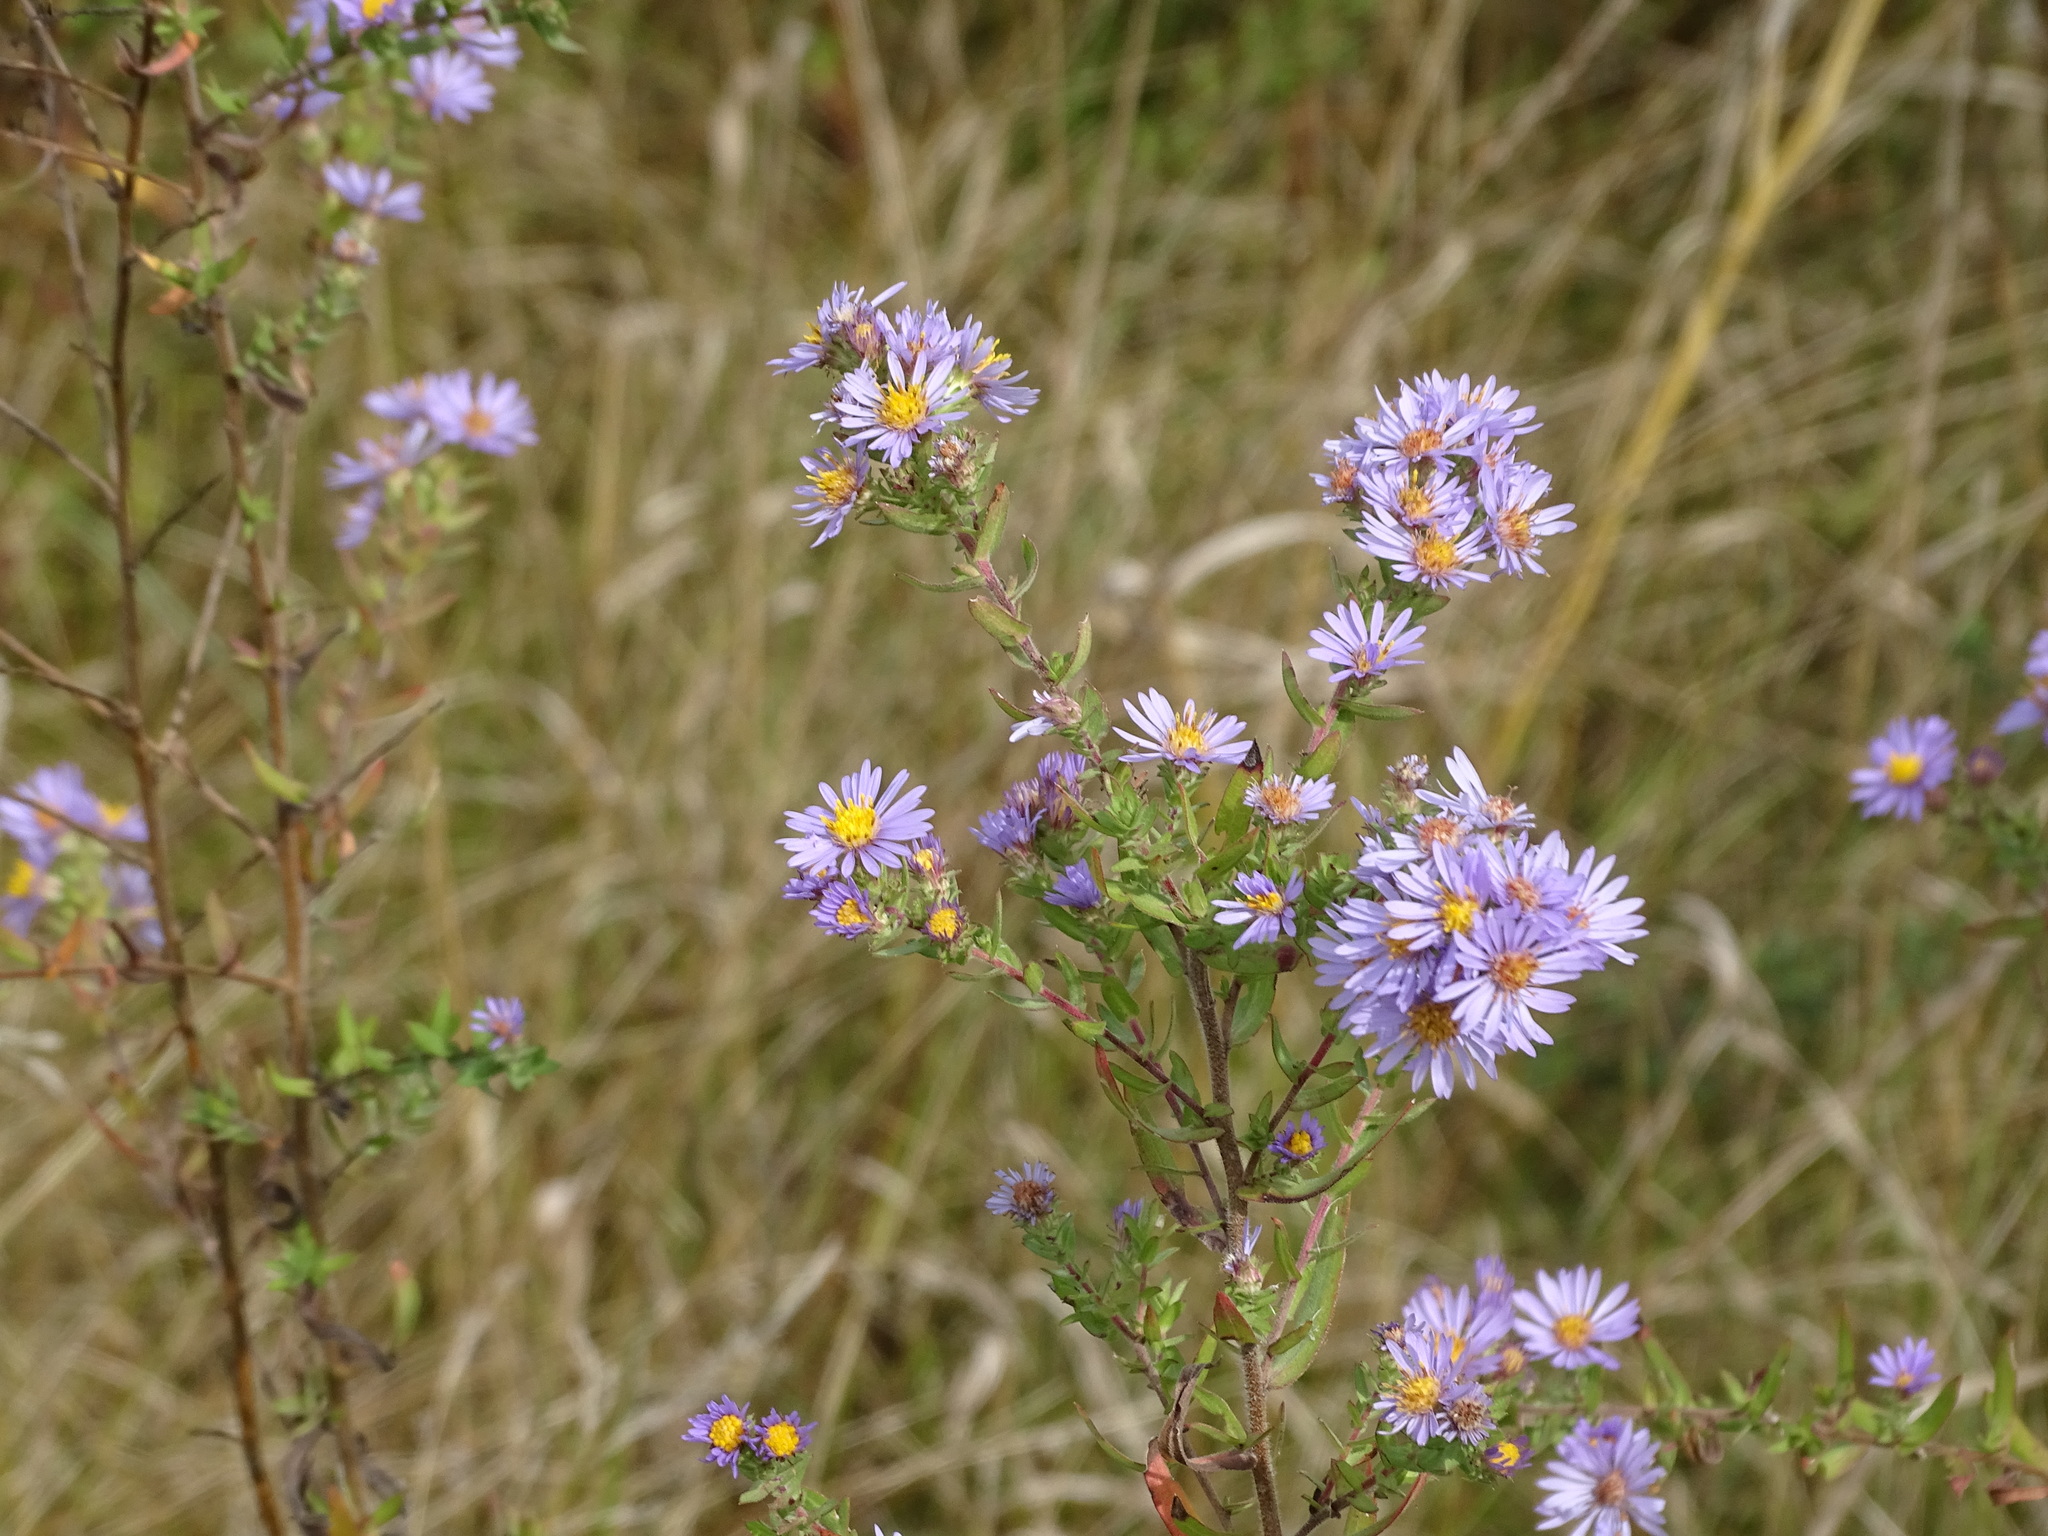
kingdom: Plantae
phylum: Tracheophyta
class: Magnoliopsida
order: Asterales
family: Asteraceae
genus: Symphyotrichum
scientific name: Symphyotrichum amethystinum
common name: Amethyst aster
